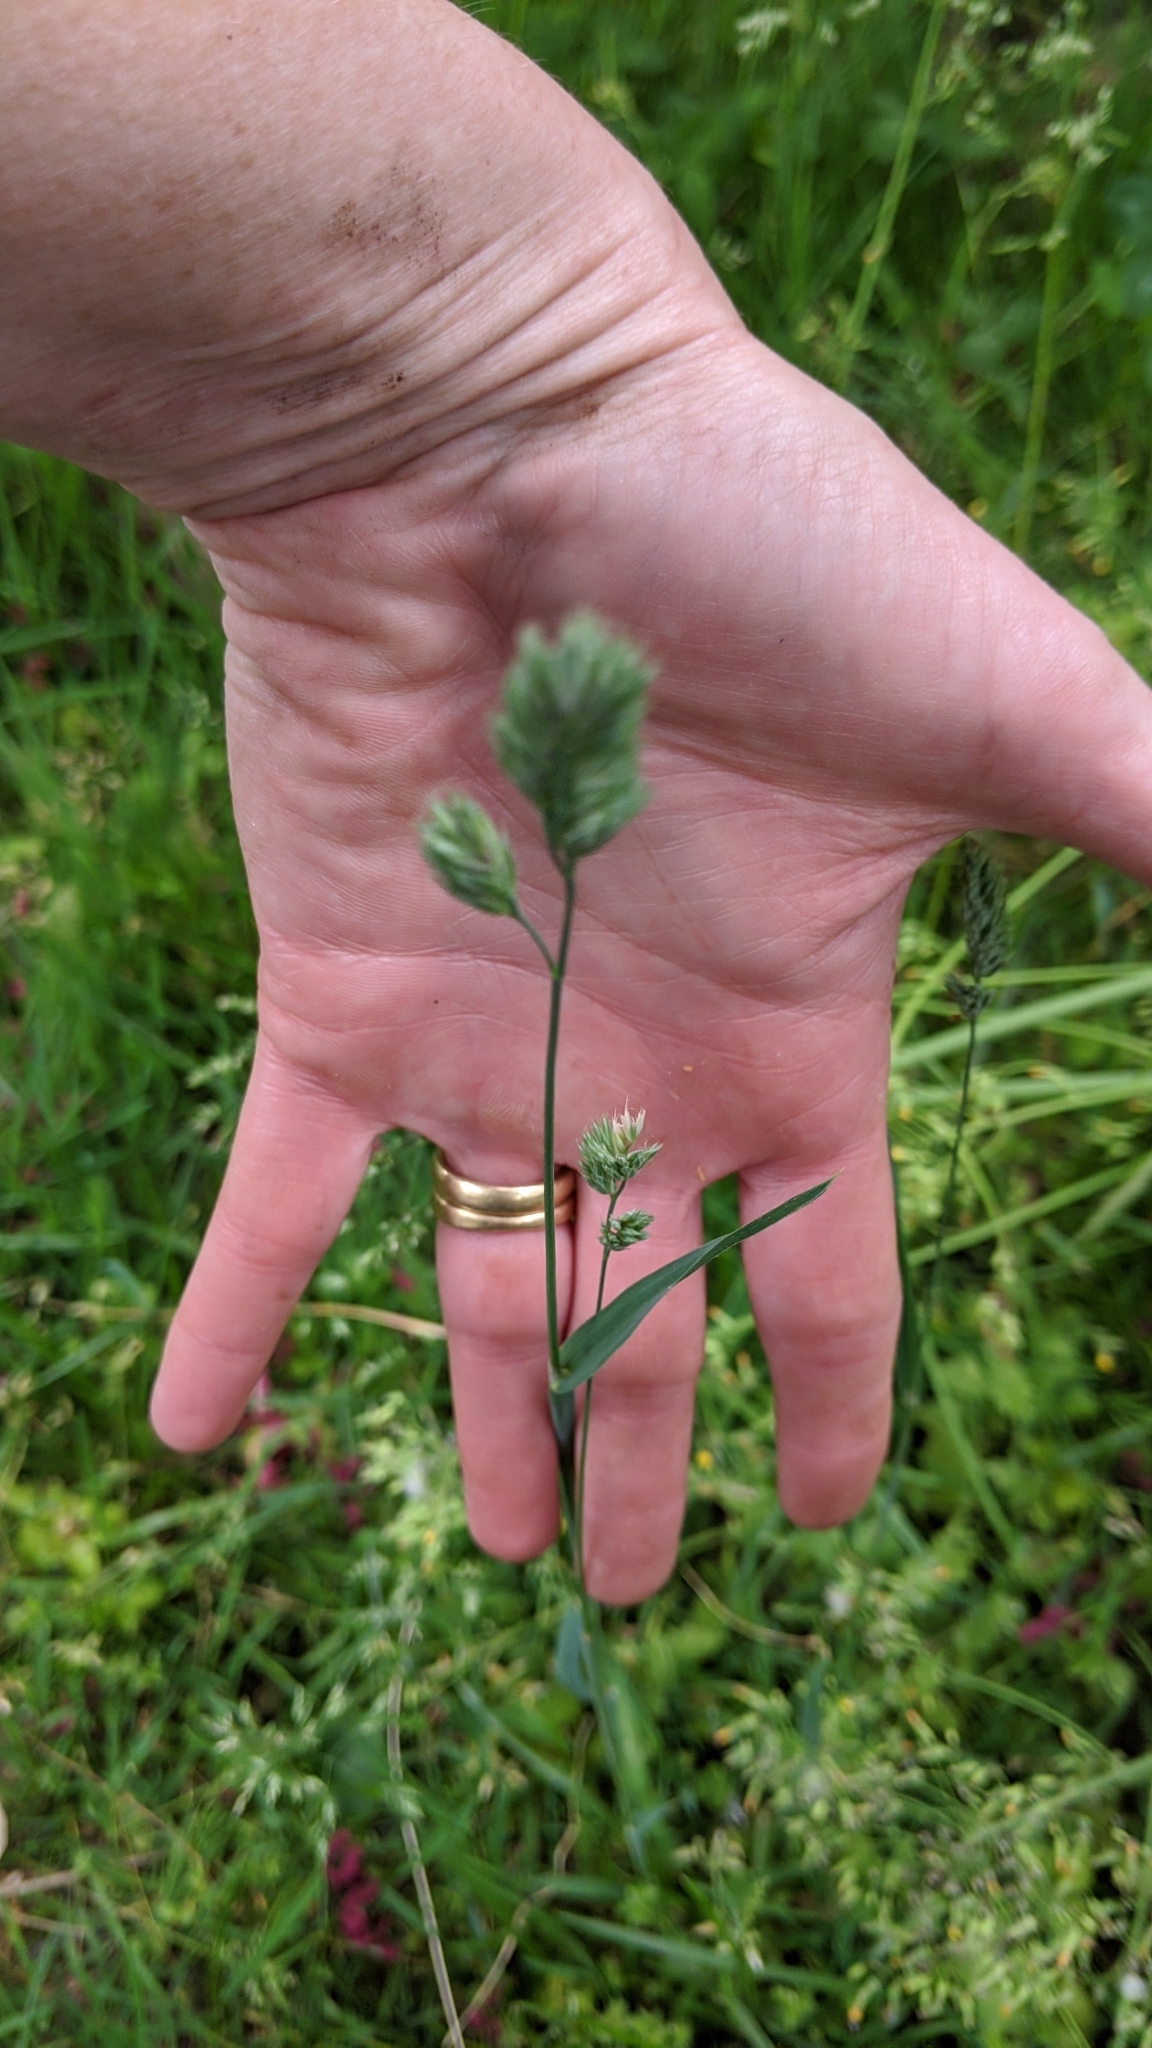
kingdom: Plantae
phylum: Tracheophyta
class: Liliopsida
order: Poales
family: Poaceae
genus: Dactylis
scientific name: Dactylis glomerata
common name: Orchardgrass
